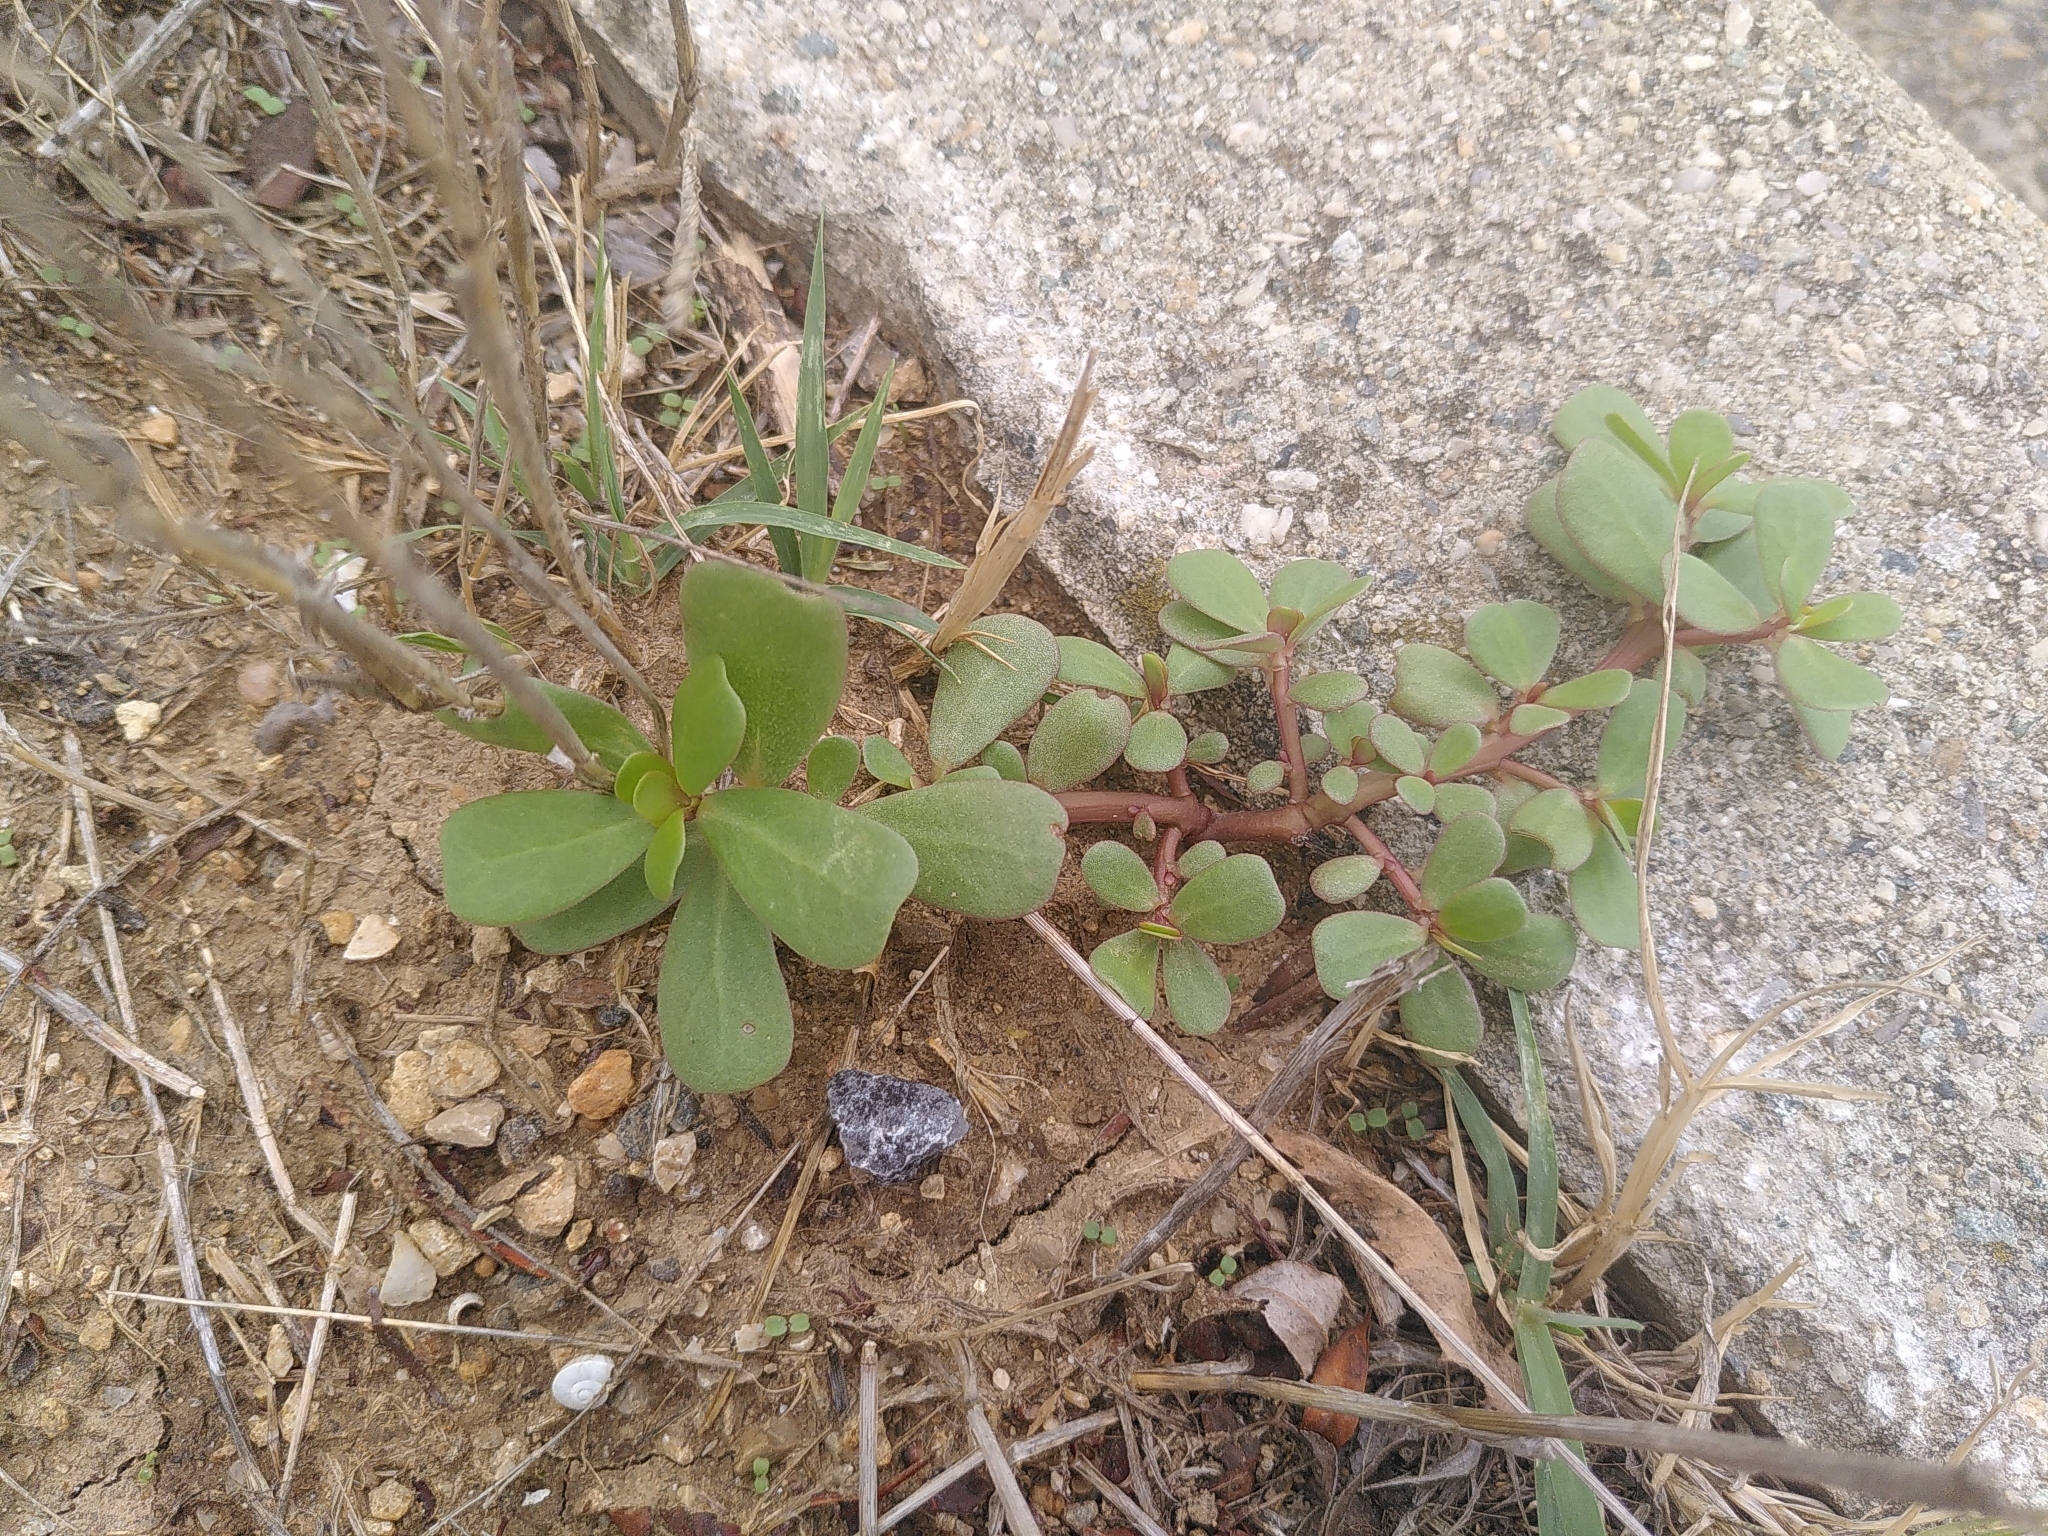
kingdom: Plantae
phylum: Tracheophyta
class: Magnoliopsida
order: Caryophyllales
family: Portulacaceae
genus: Portulaca
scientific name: Portulaca oleracea
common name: Common purslane
